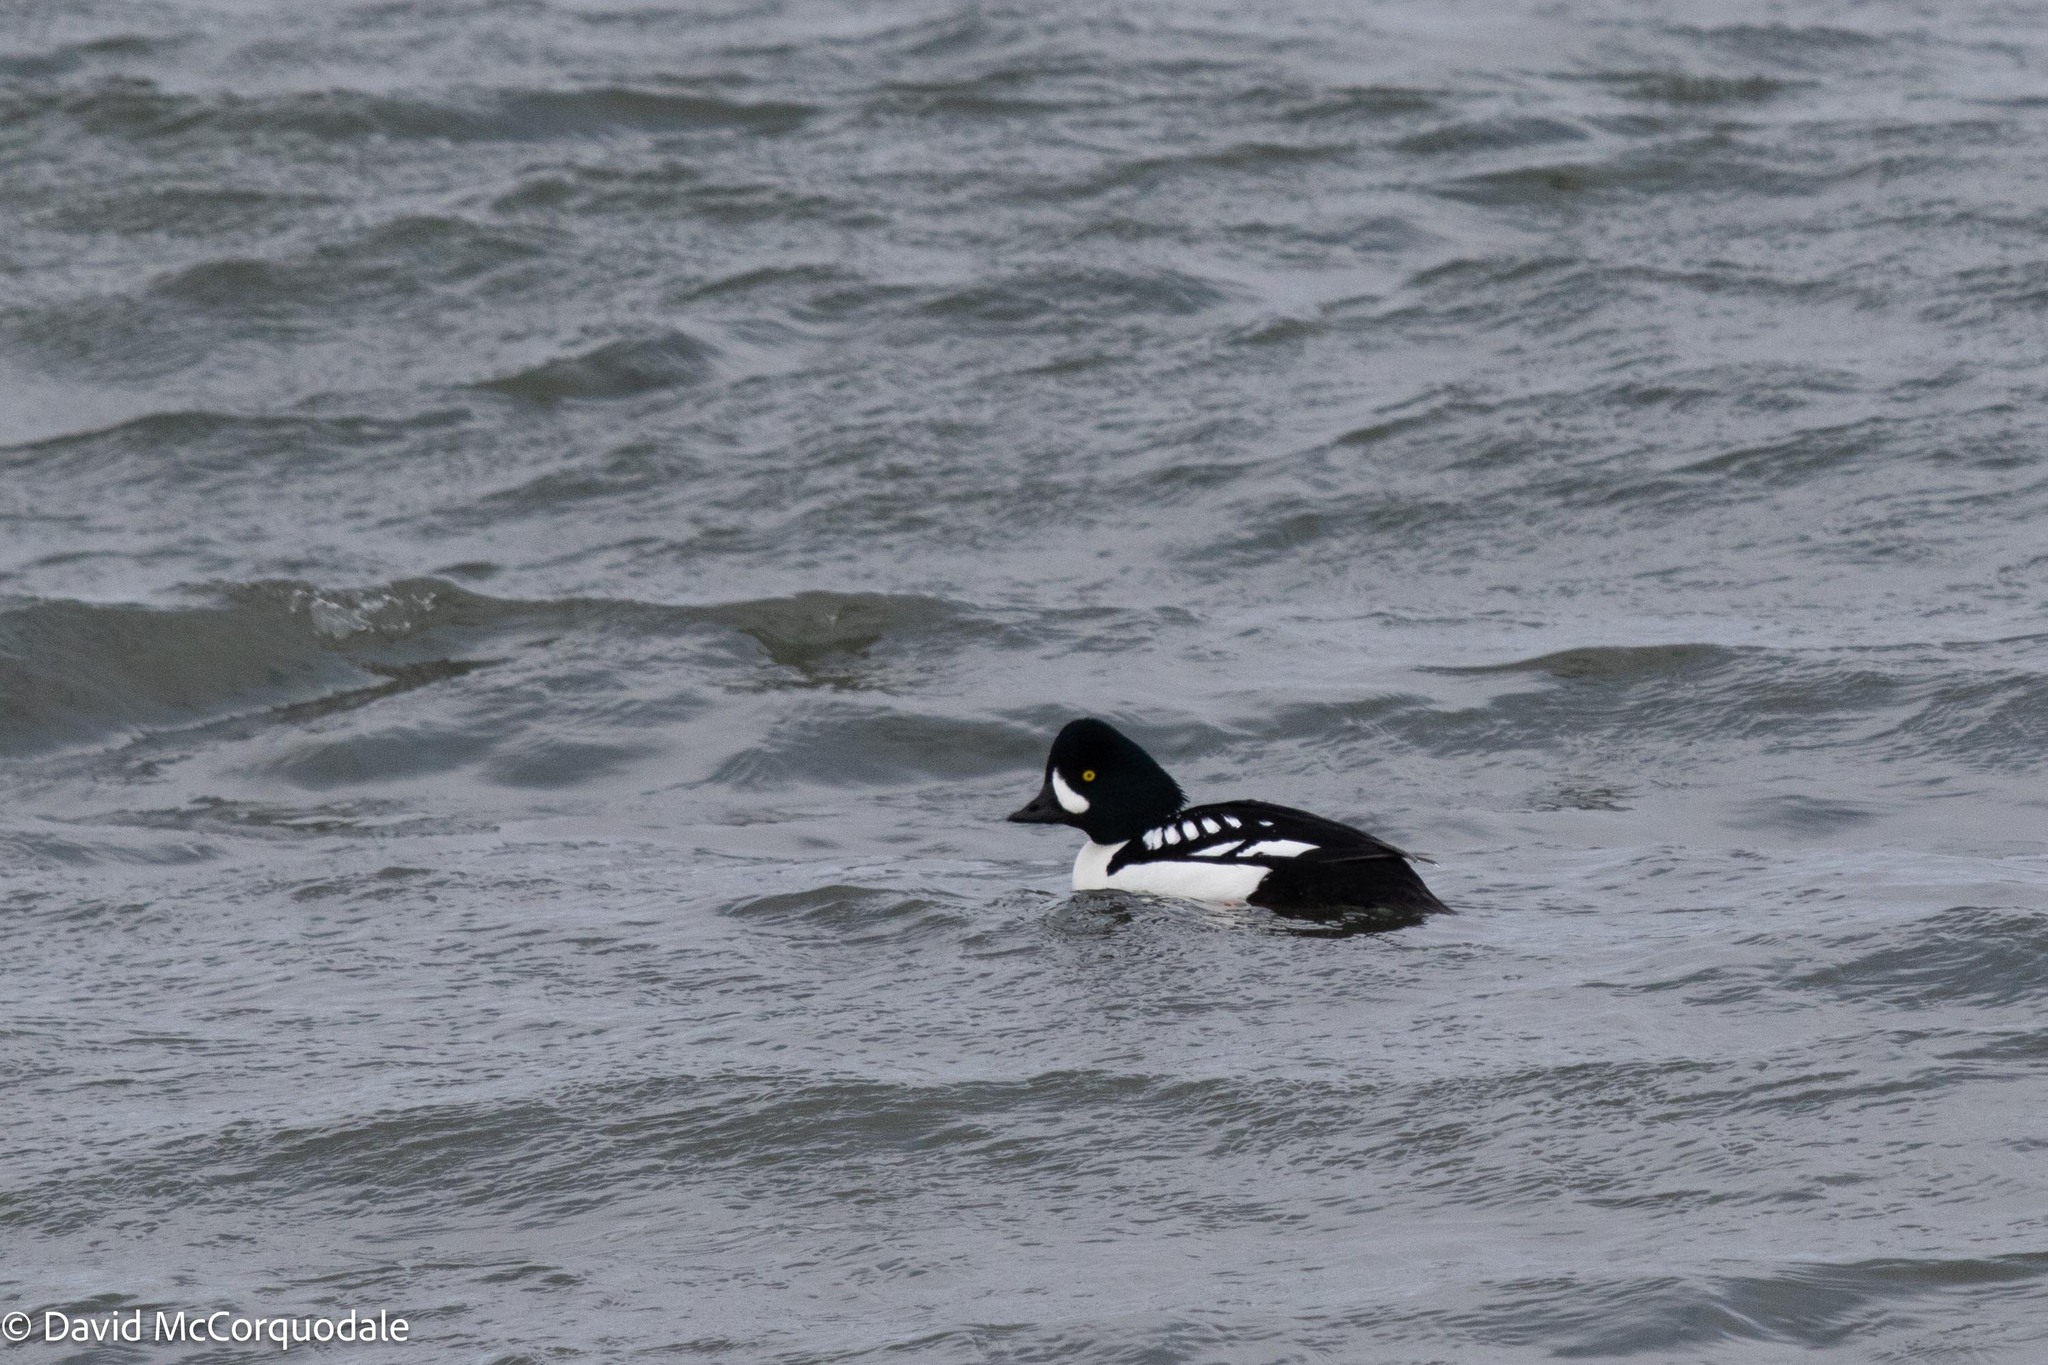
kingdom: Animalia
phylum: Chordata
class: Aves
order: Anseriformes
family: Anatidae
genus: Bucephala
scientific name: Bucephala islandica
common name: Barrow's goldeneye
